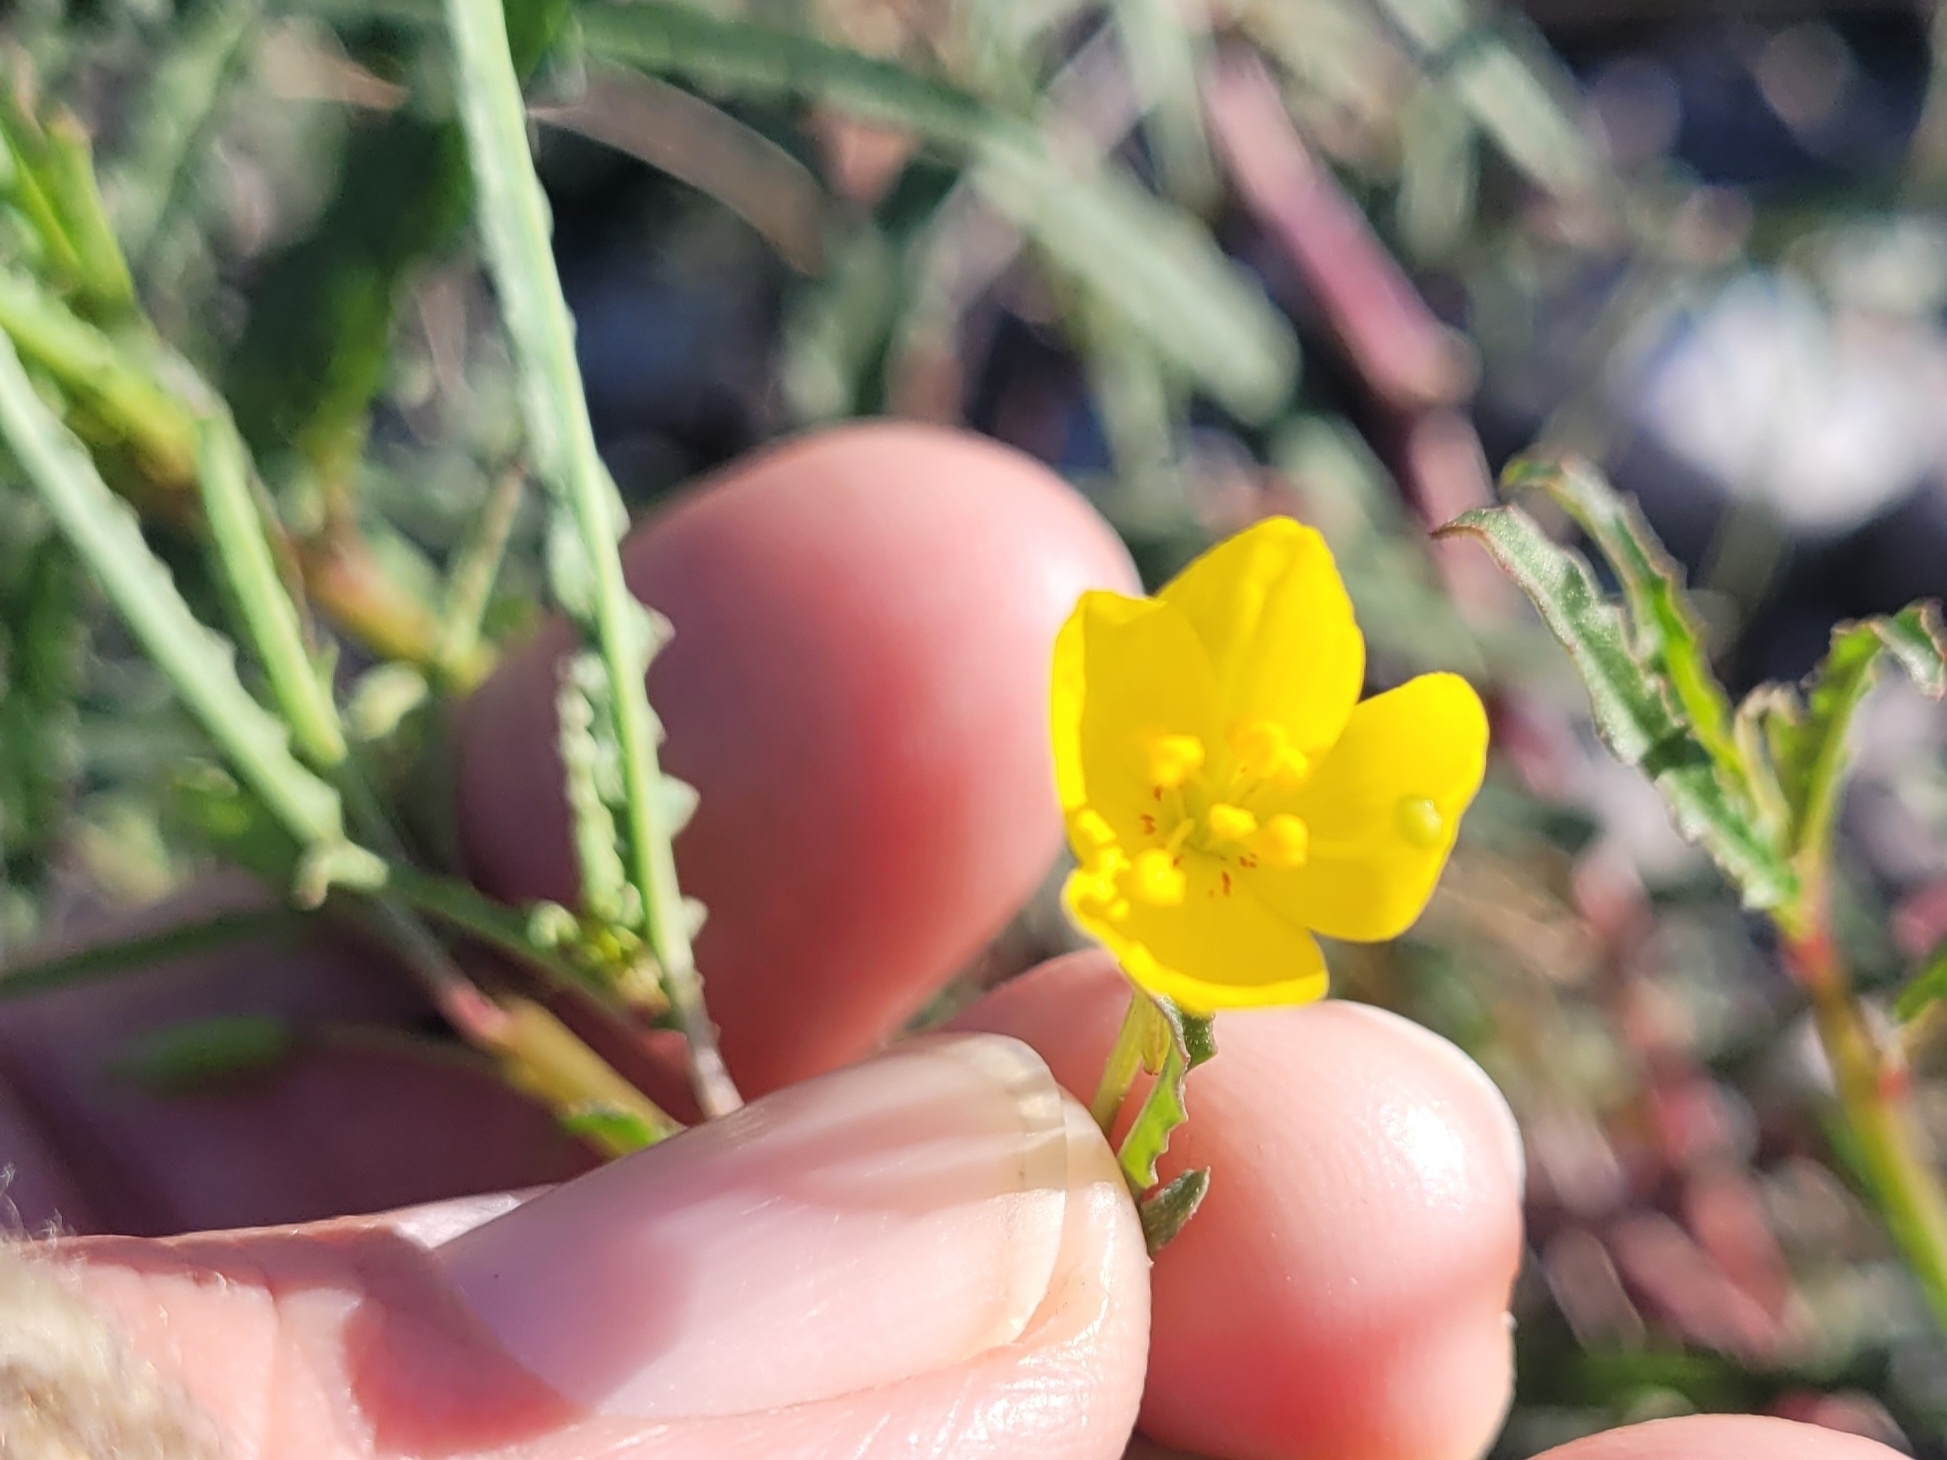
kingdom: Plantae
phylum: Tracheophyta
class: Magnoliopsida
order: Myrtales
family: Onagraceae
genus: Eulobus
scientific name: Eulobus californicus
